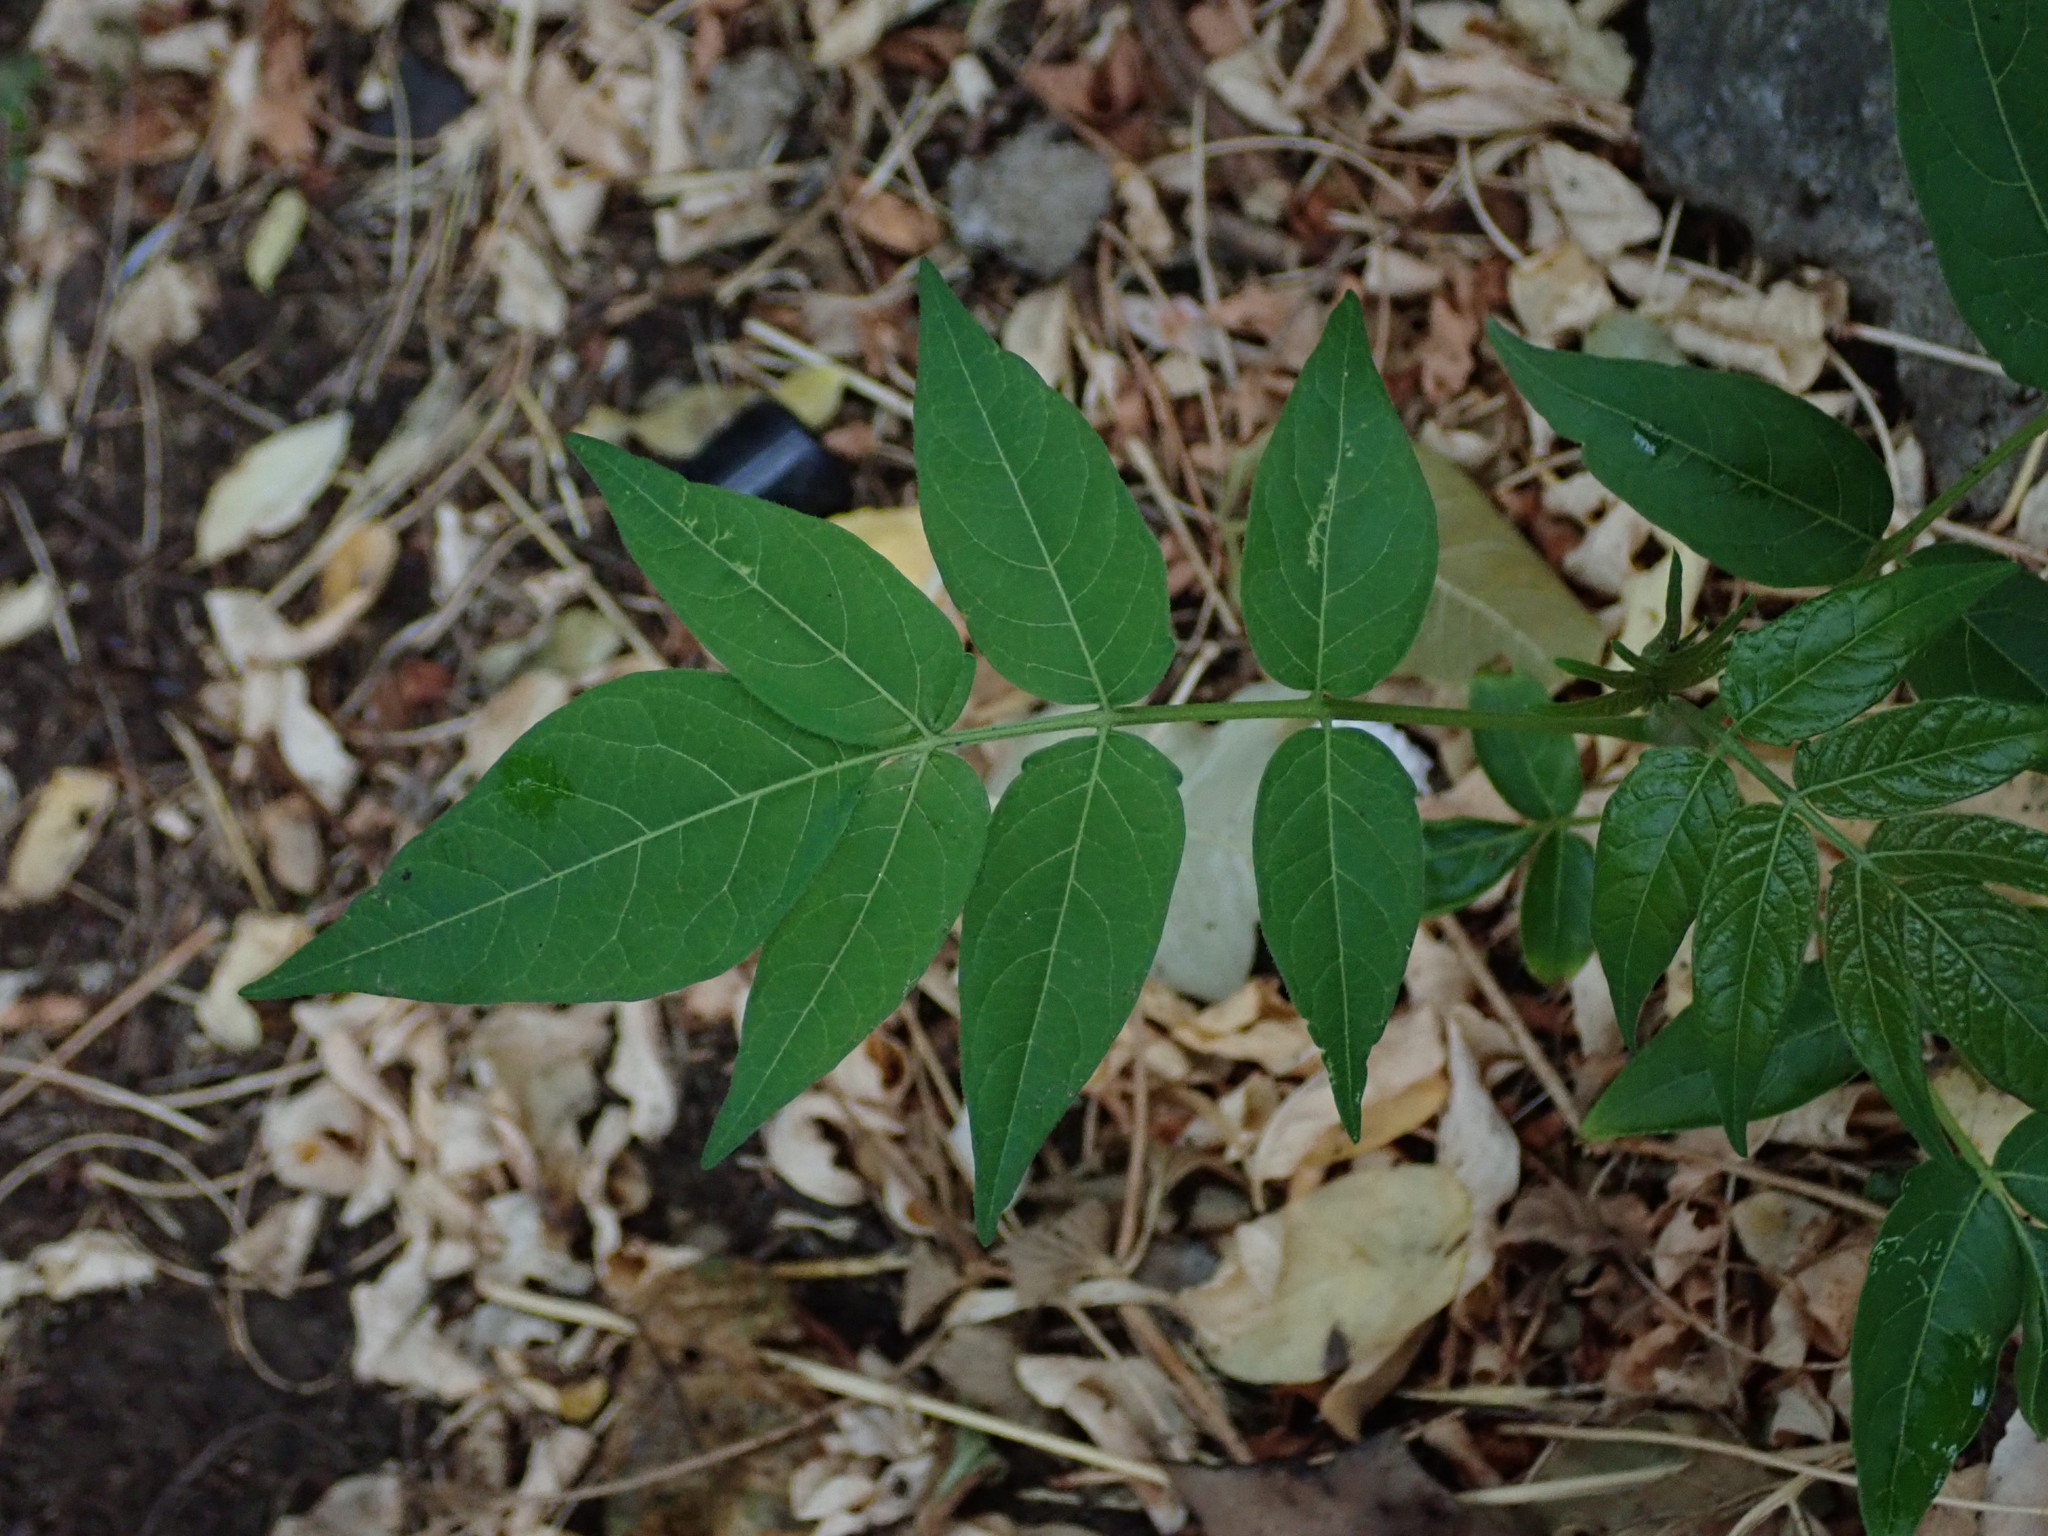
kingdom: Plantae
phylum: Tracheophyta
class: Magnoliopsida
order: Sapindales
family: Simaroubaceae
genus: Ailanthus
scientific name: Ailanthus altissima
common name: Tree-of-heaven
